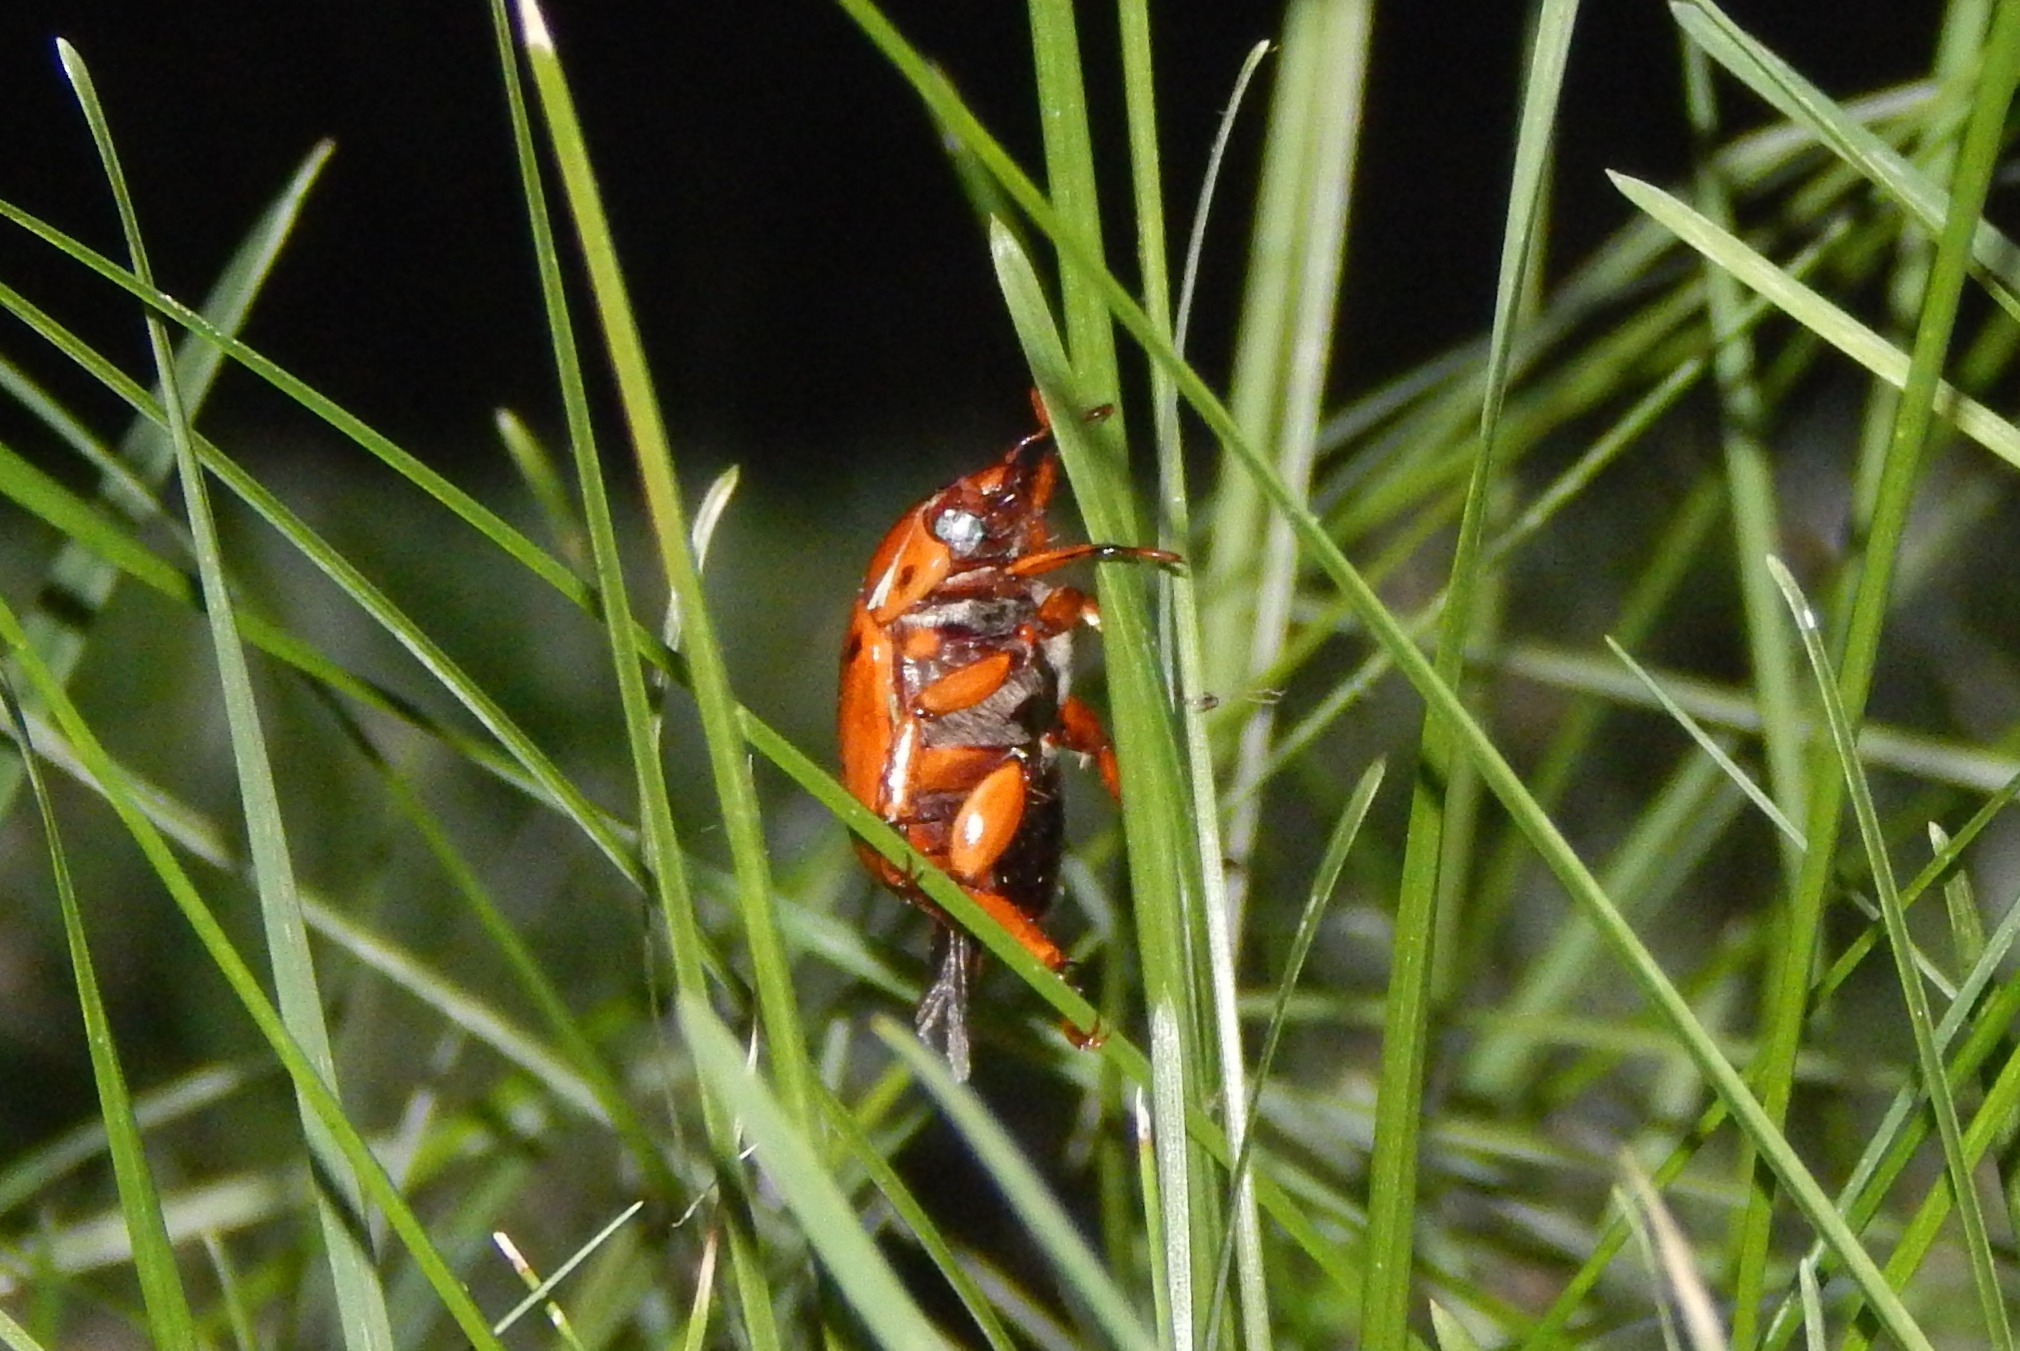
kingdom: Animalia
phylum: Arthropoda
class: Insecta
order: Coleoptera
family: Scarabaeidae
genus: Pelidnota
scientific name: Pelidnota punctata
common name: Grapevine beetle
